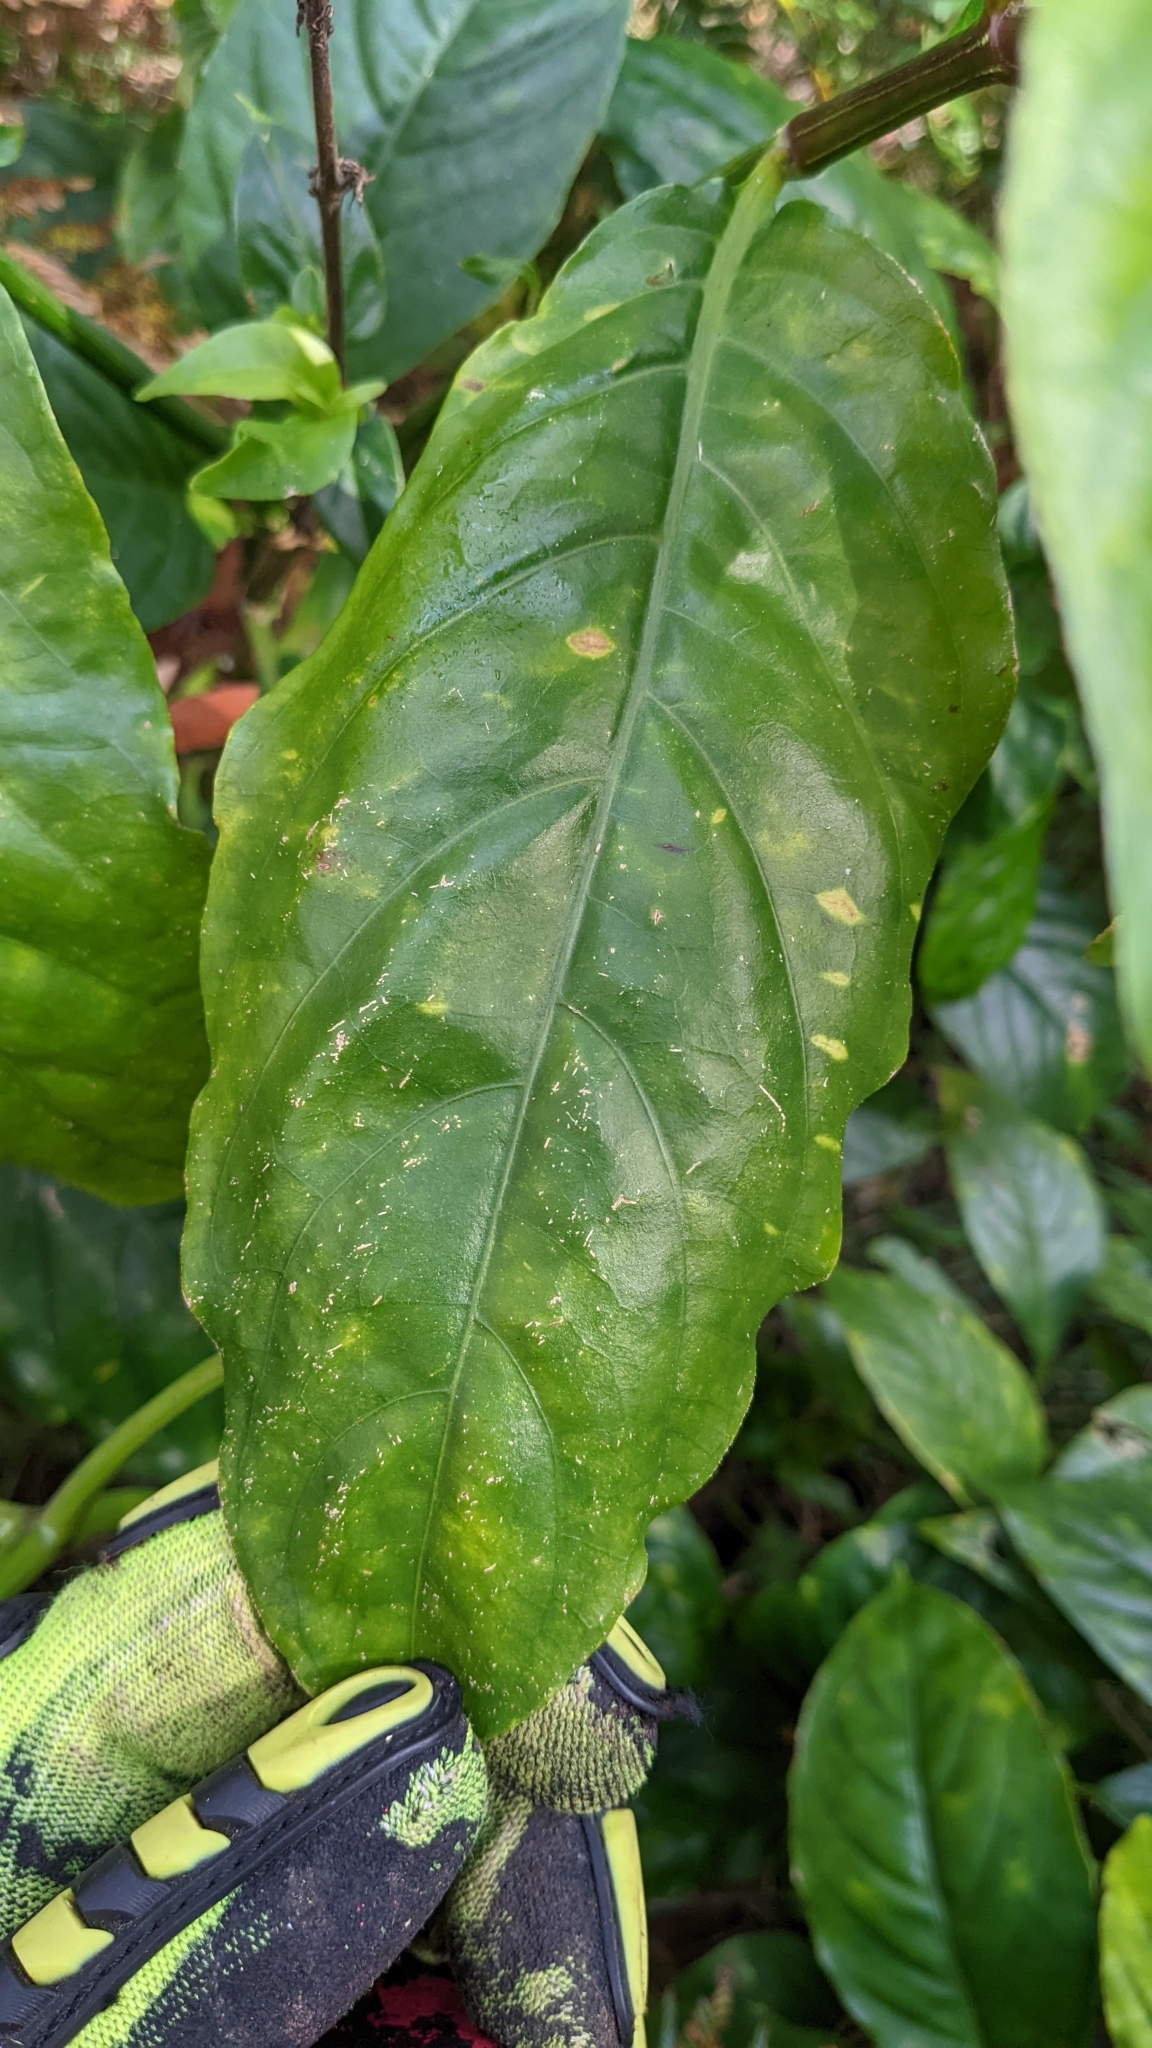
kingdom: Plantae
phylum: Tracheophyta
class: Magnoliopsida
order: Lamiales
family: Acanthaceae
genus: Odontonema
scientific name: Odontonema cuspidatum
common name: Mottled toothedthread
